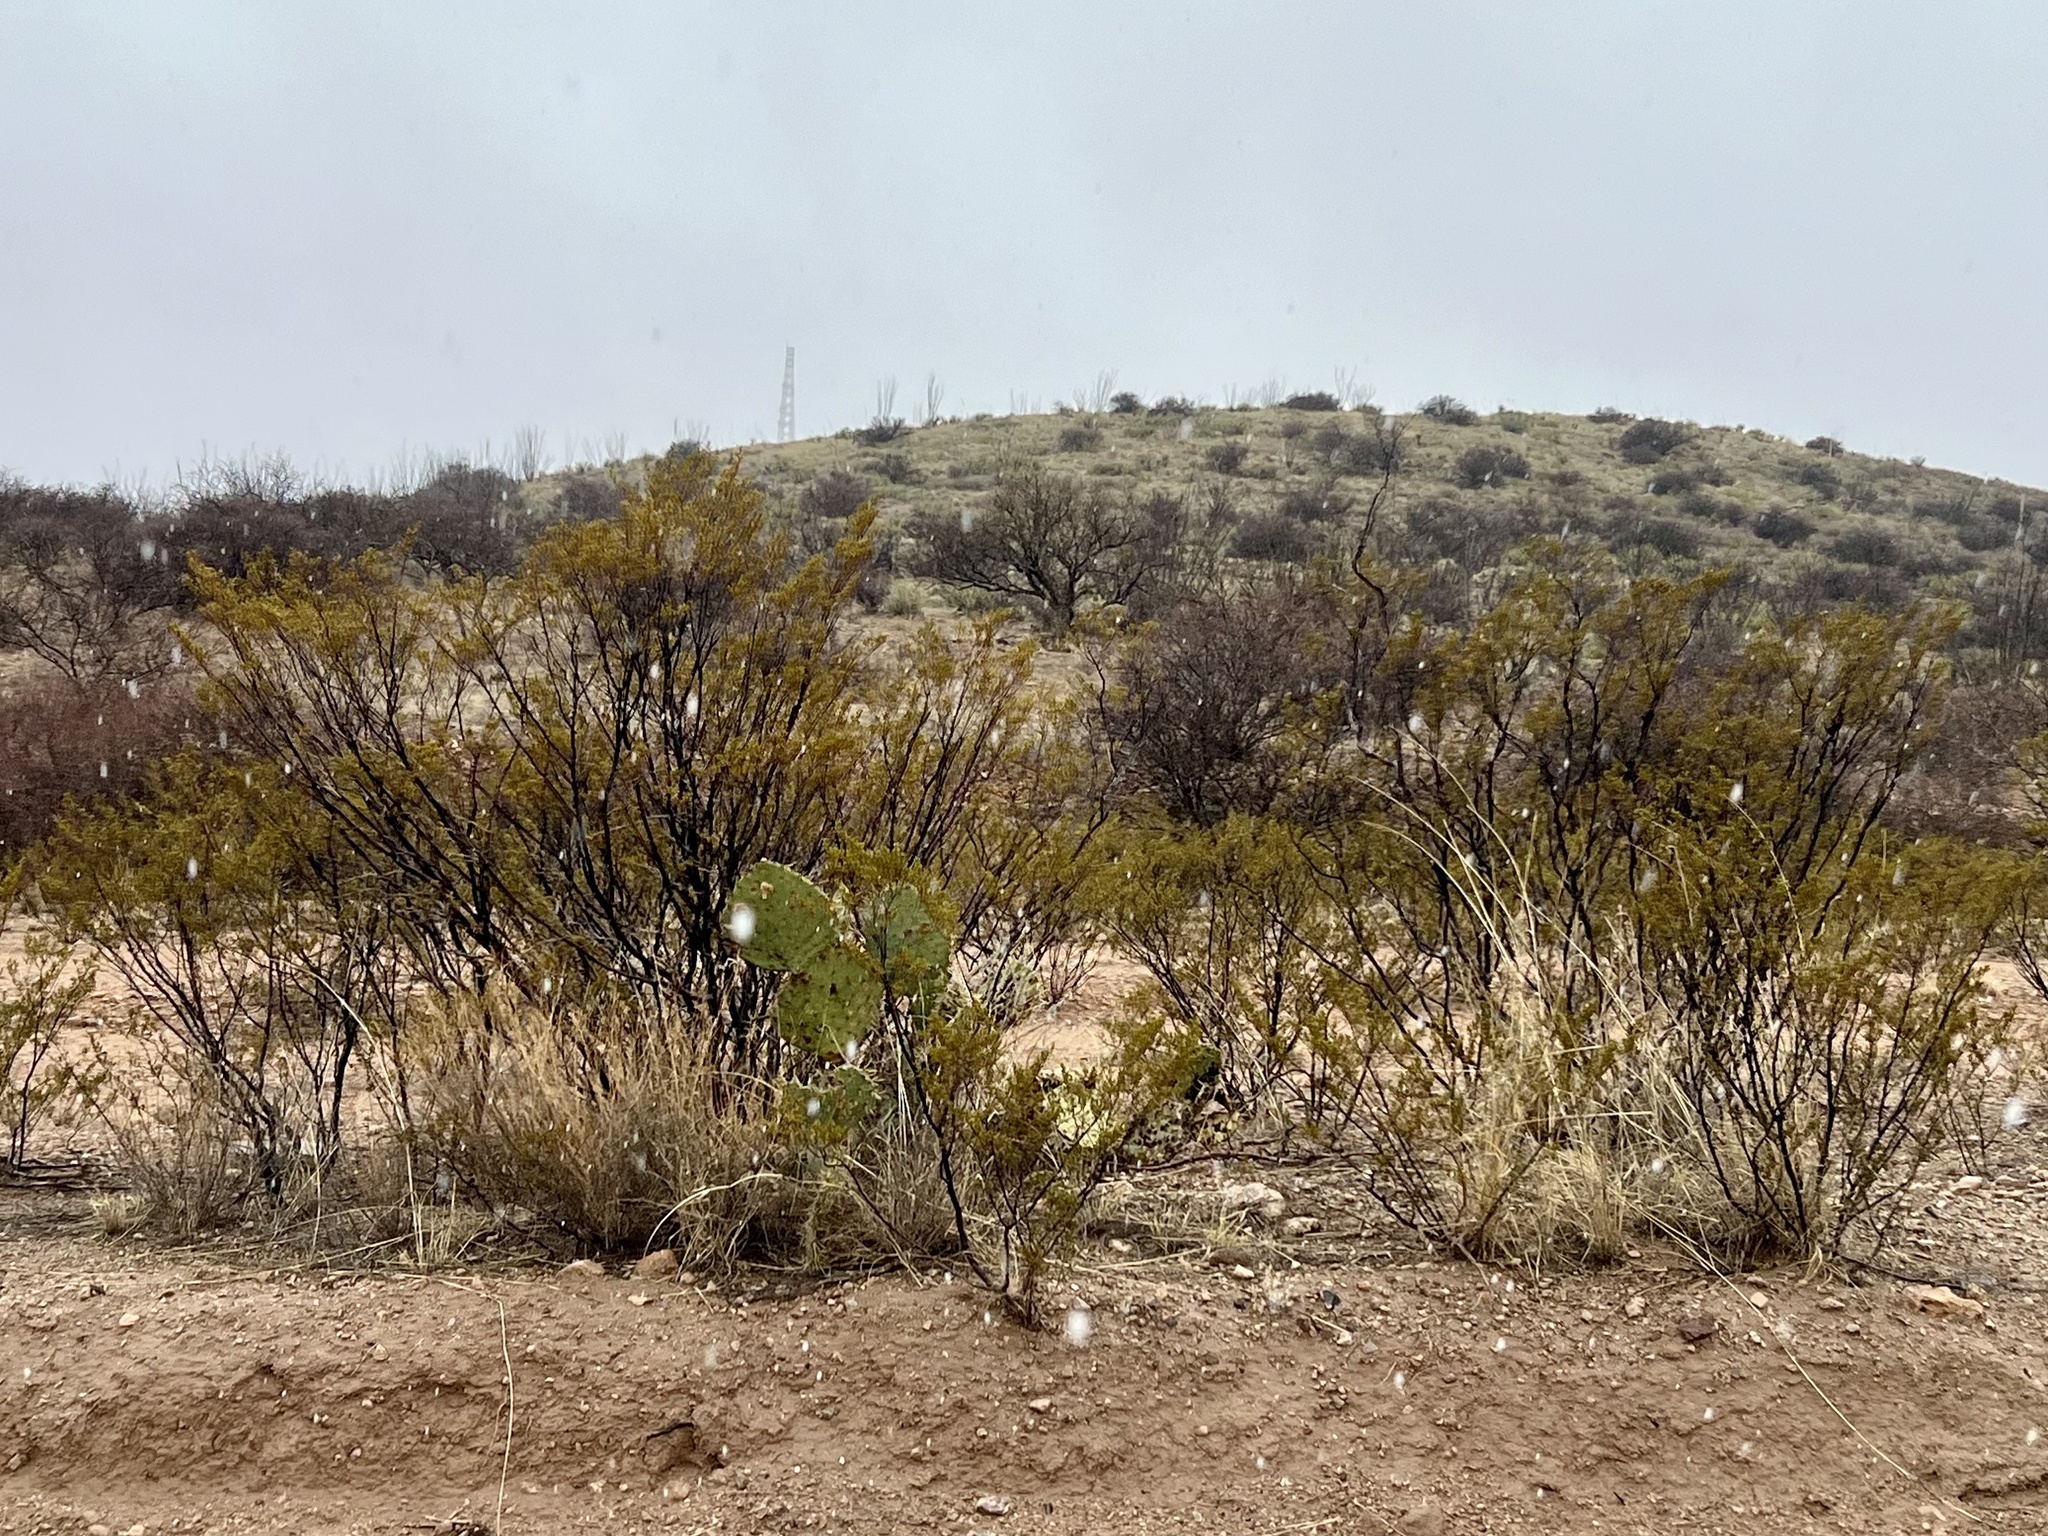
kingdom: Plantae
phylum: Tracheophyta
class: Magnoliopsida
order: Zygophyllales
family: Zygophyllaceae
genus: Larrea
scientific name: Larrea tridentata
